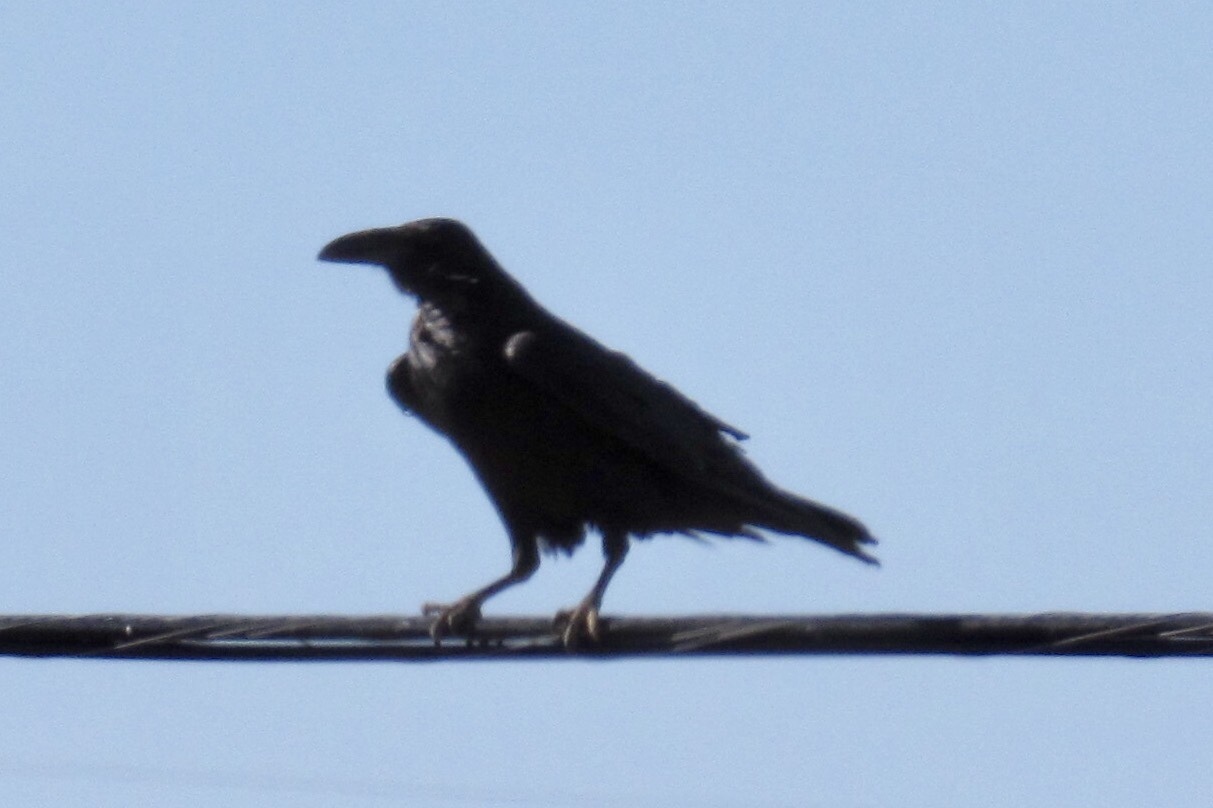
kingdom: Animalia
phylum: Chordata
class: Aves
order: Passeriformes
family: Corvidae
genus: Corvus
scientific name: Corvus corax
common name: Common raven
